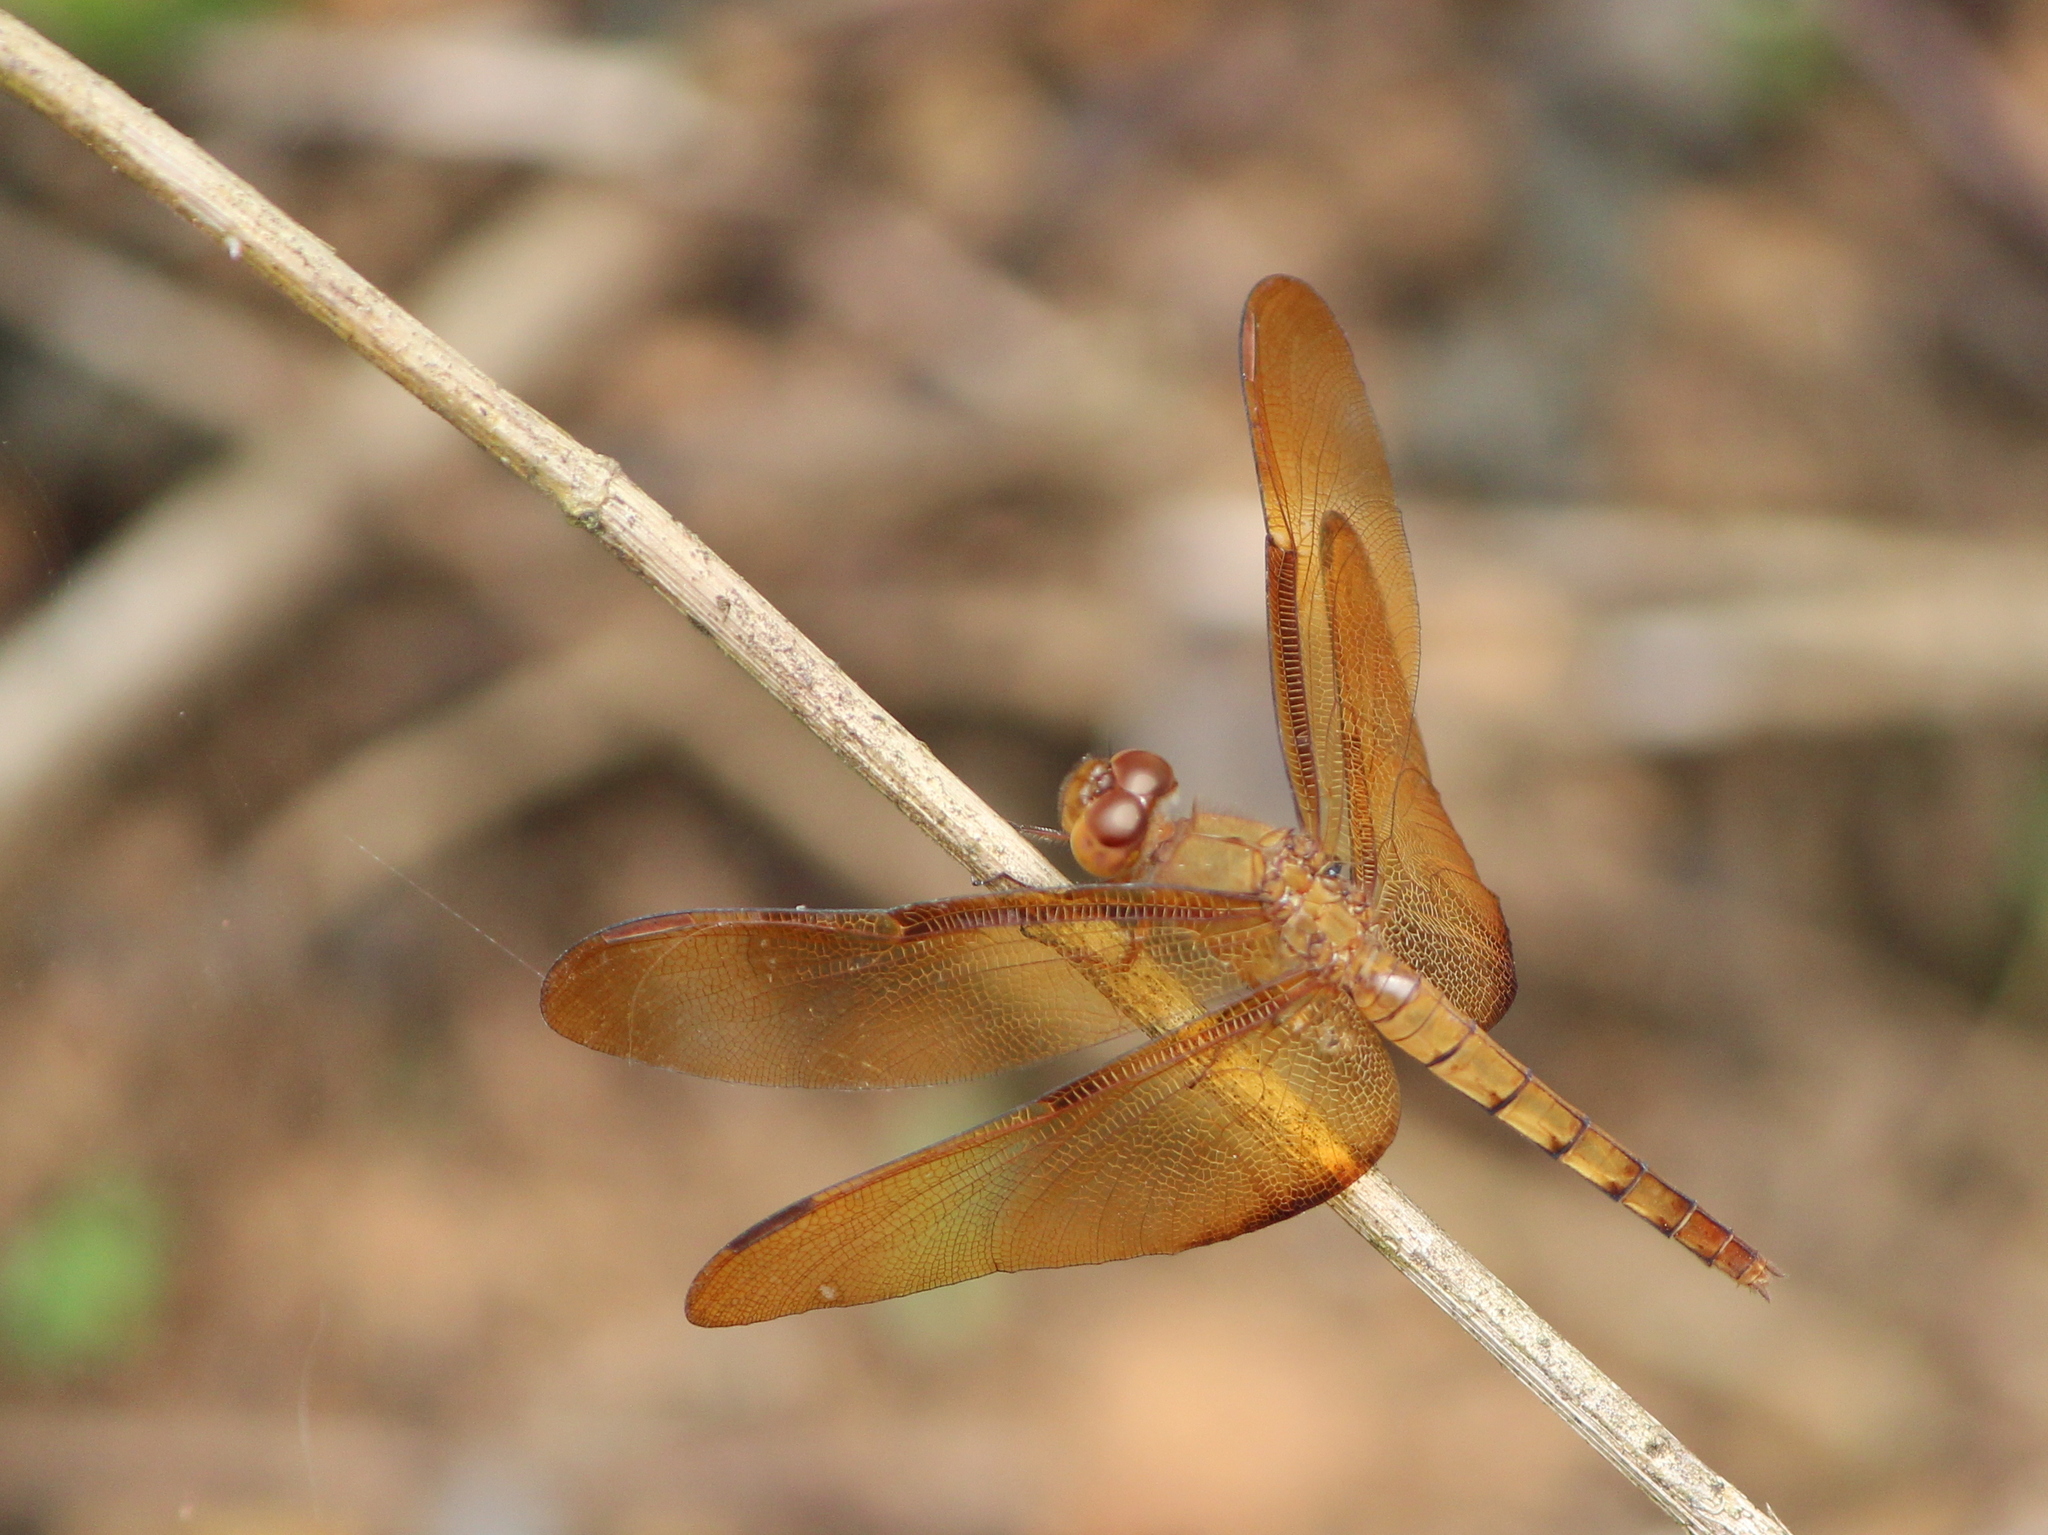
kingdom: Animalia
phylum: Arthropoda
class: Insecta
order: Odonata
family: Libellulidae
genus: Neurothemis
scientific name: Neurothemis fulvia
